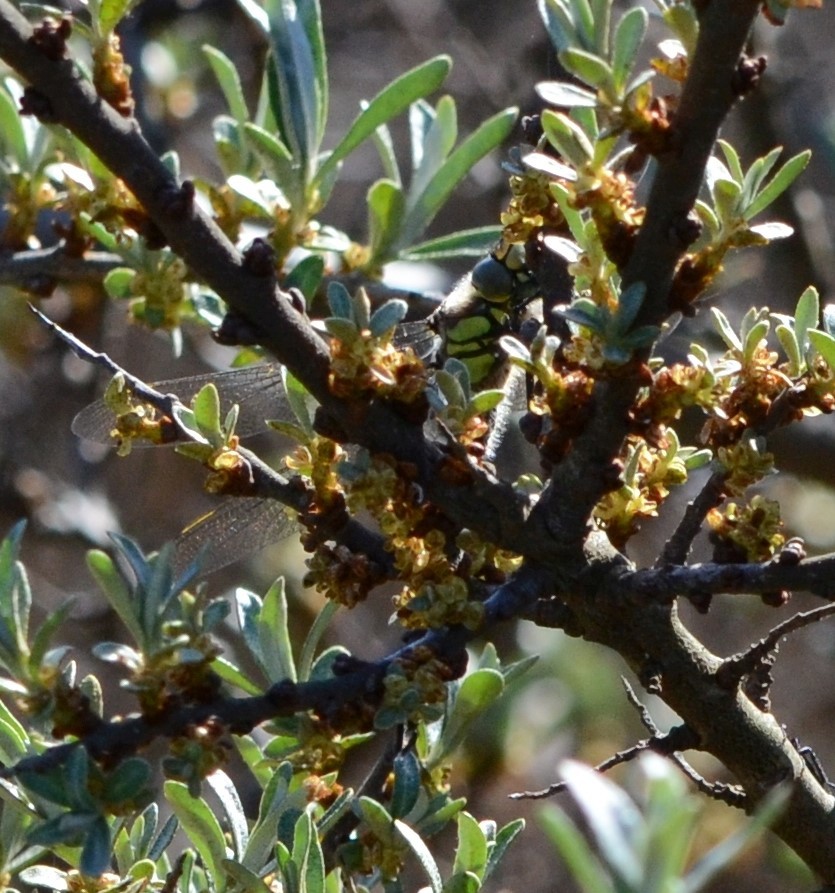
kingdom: Animalia
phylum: Arthropoda
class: Insecta
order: Odonata
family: Aeshnidae
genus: Brachytron
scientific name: Brachytron pratense
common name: Hairy hawker
